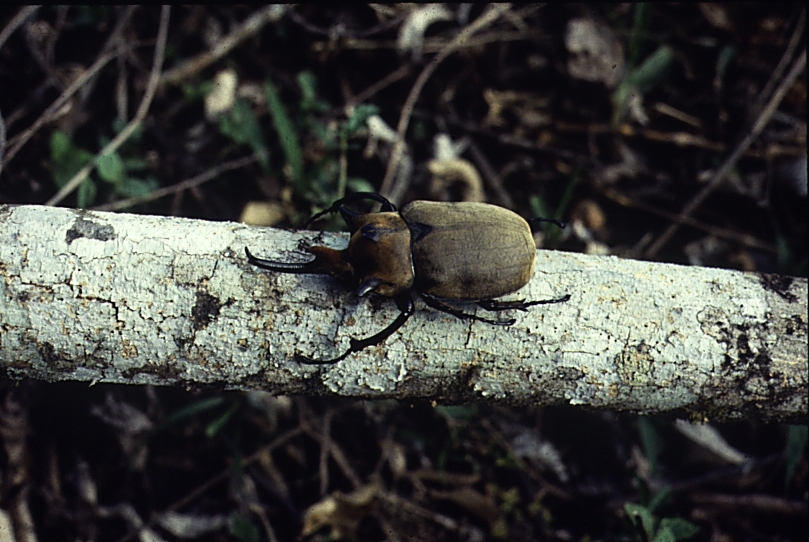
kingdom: Animalia
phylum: Arthropoda
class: Insecta
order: Coleoptera
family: Scarabaeidae
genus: Megasoma
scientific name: Megasoma elephas
